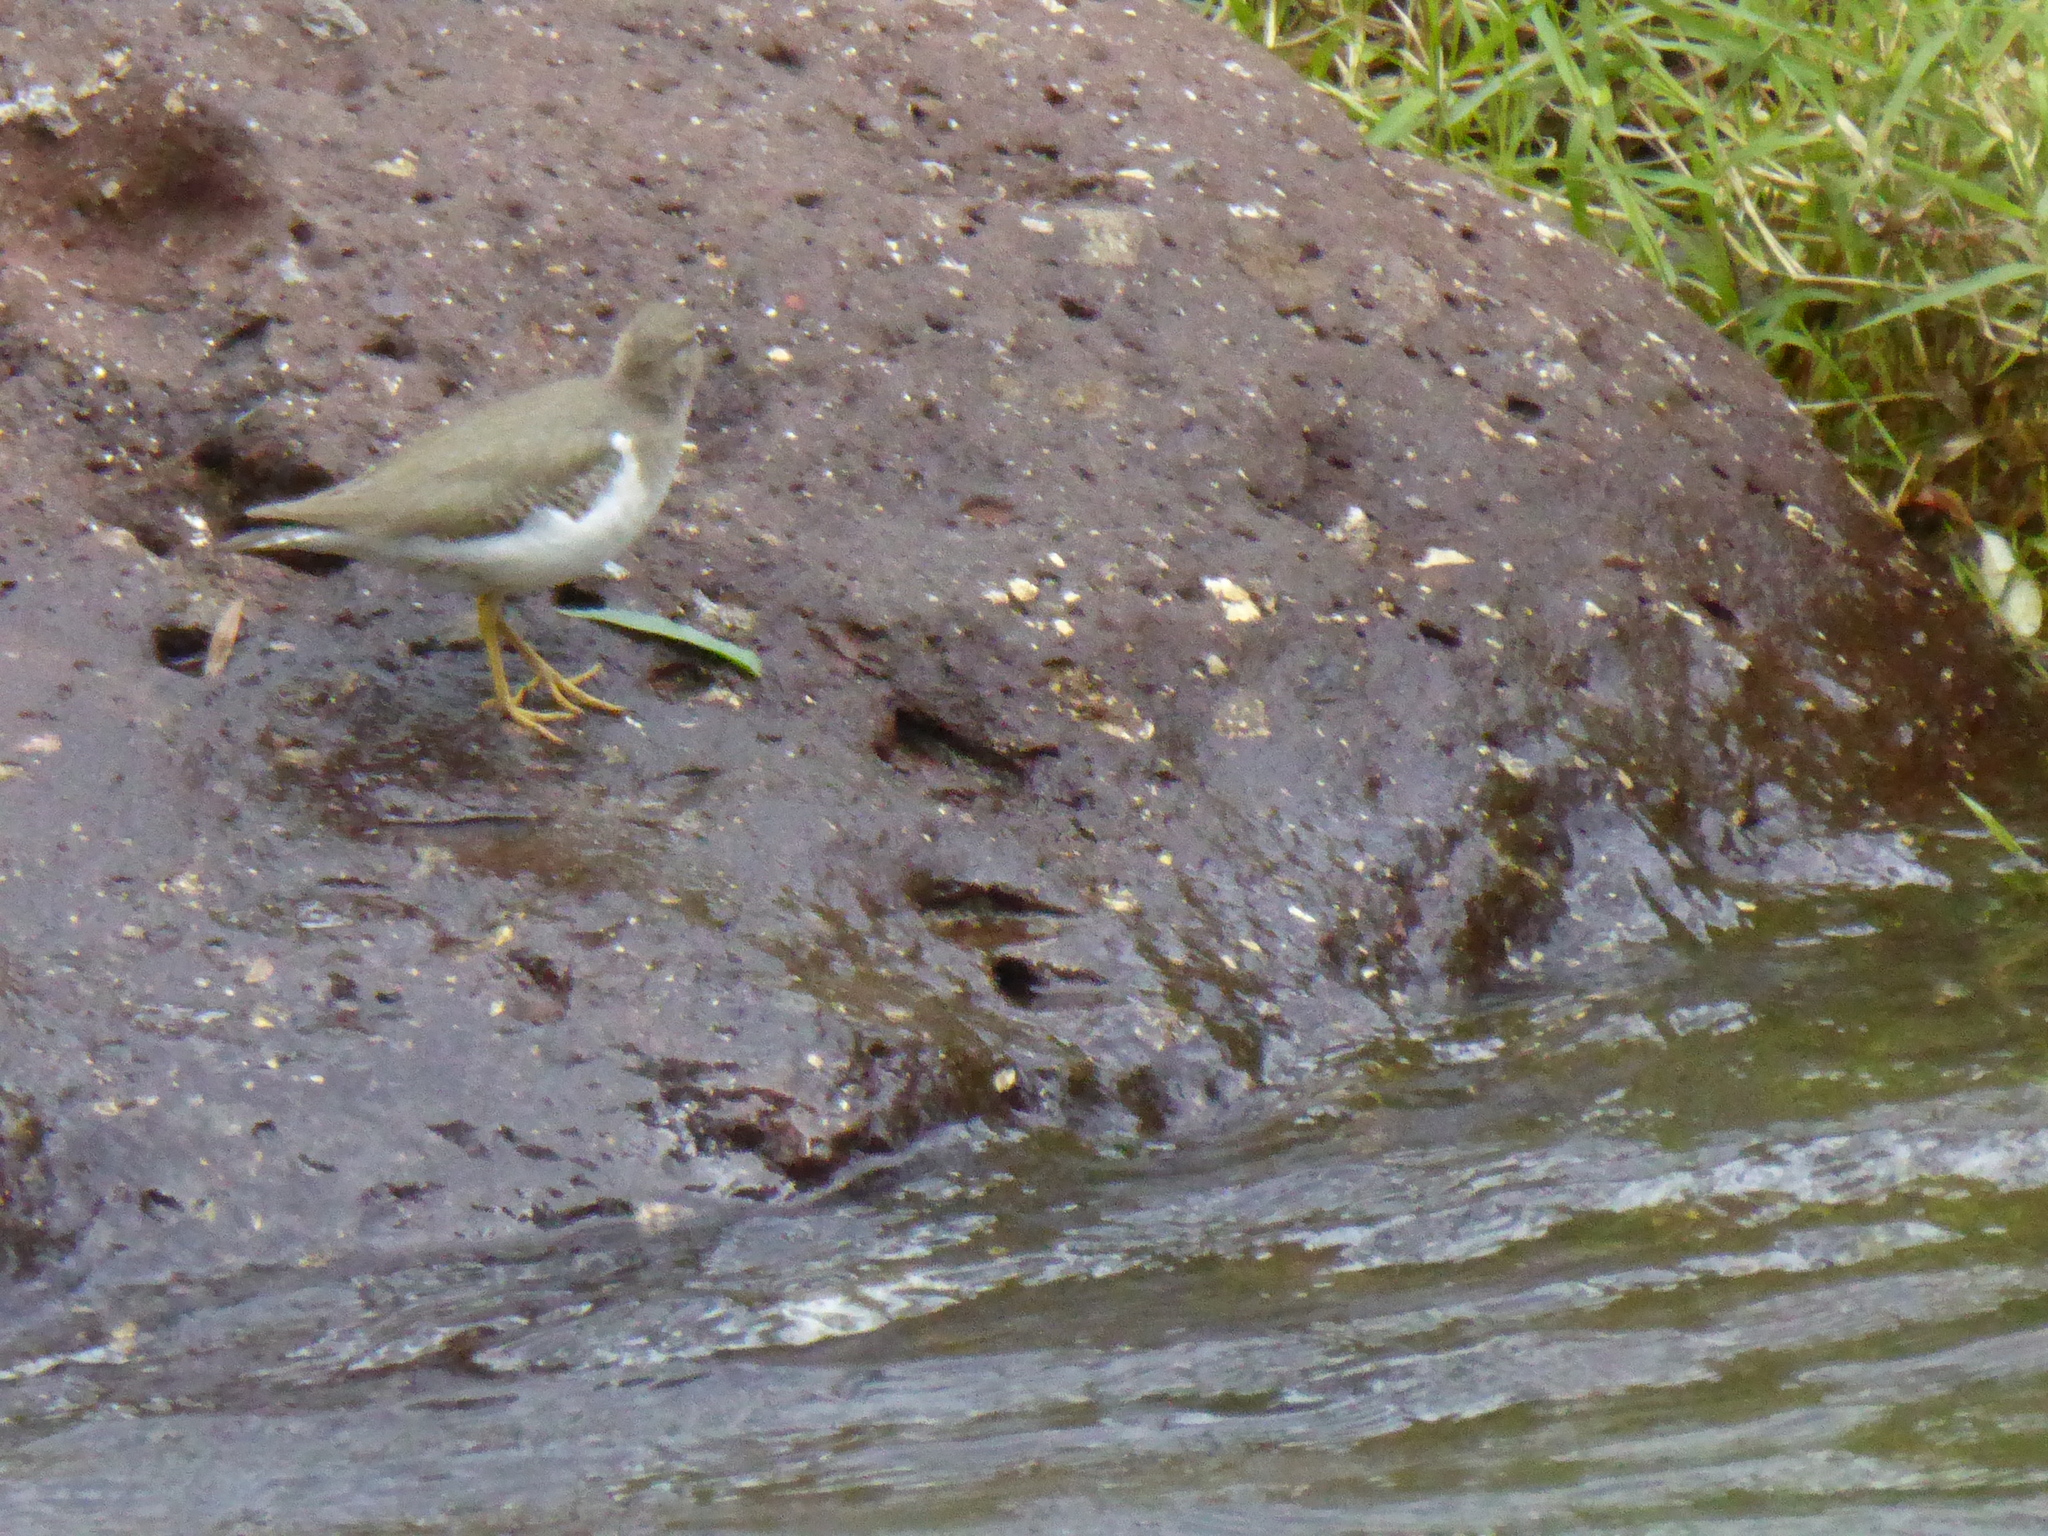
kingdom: Animalia
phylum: Chordata
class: Aves
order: Charadriiformes
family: Scolopacidae
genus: Actitis
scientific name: Actitis macularius
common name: Spotted sandpiper
